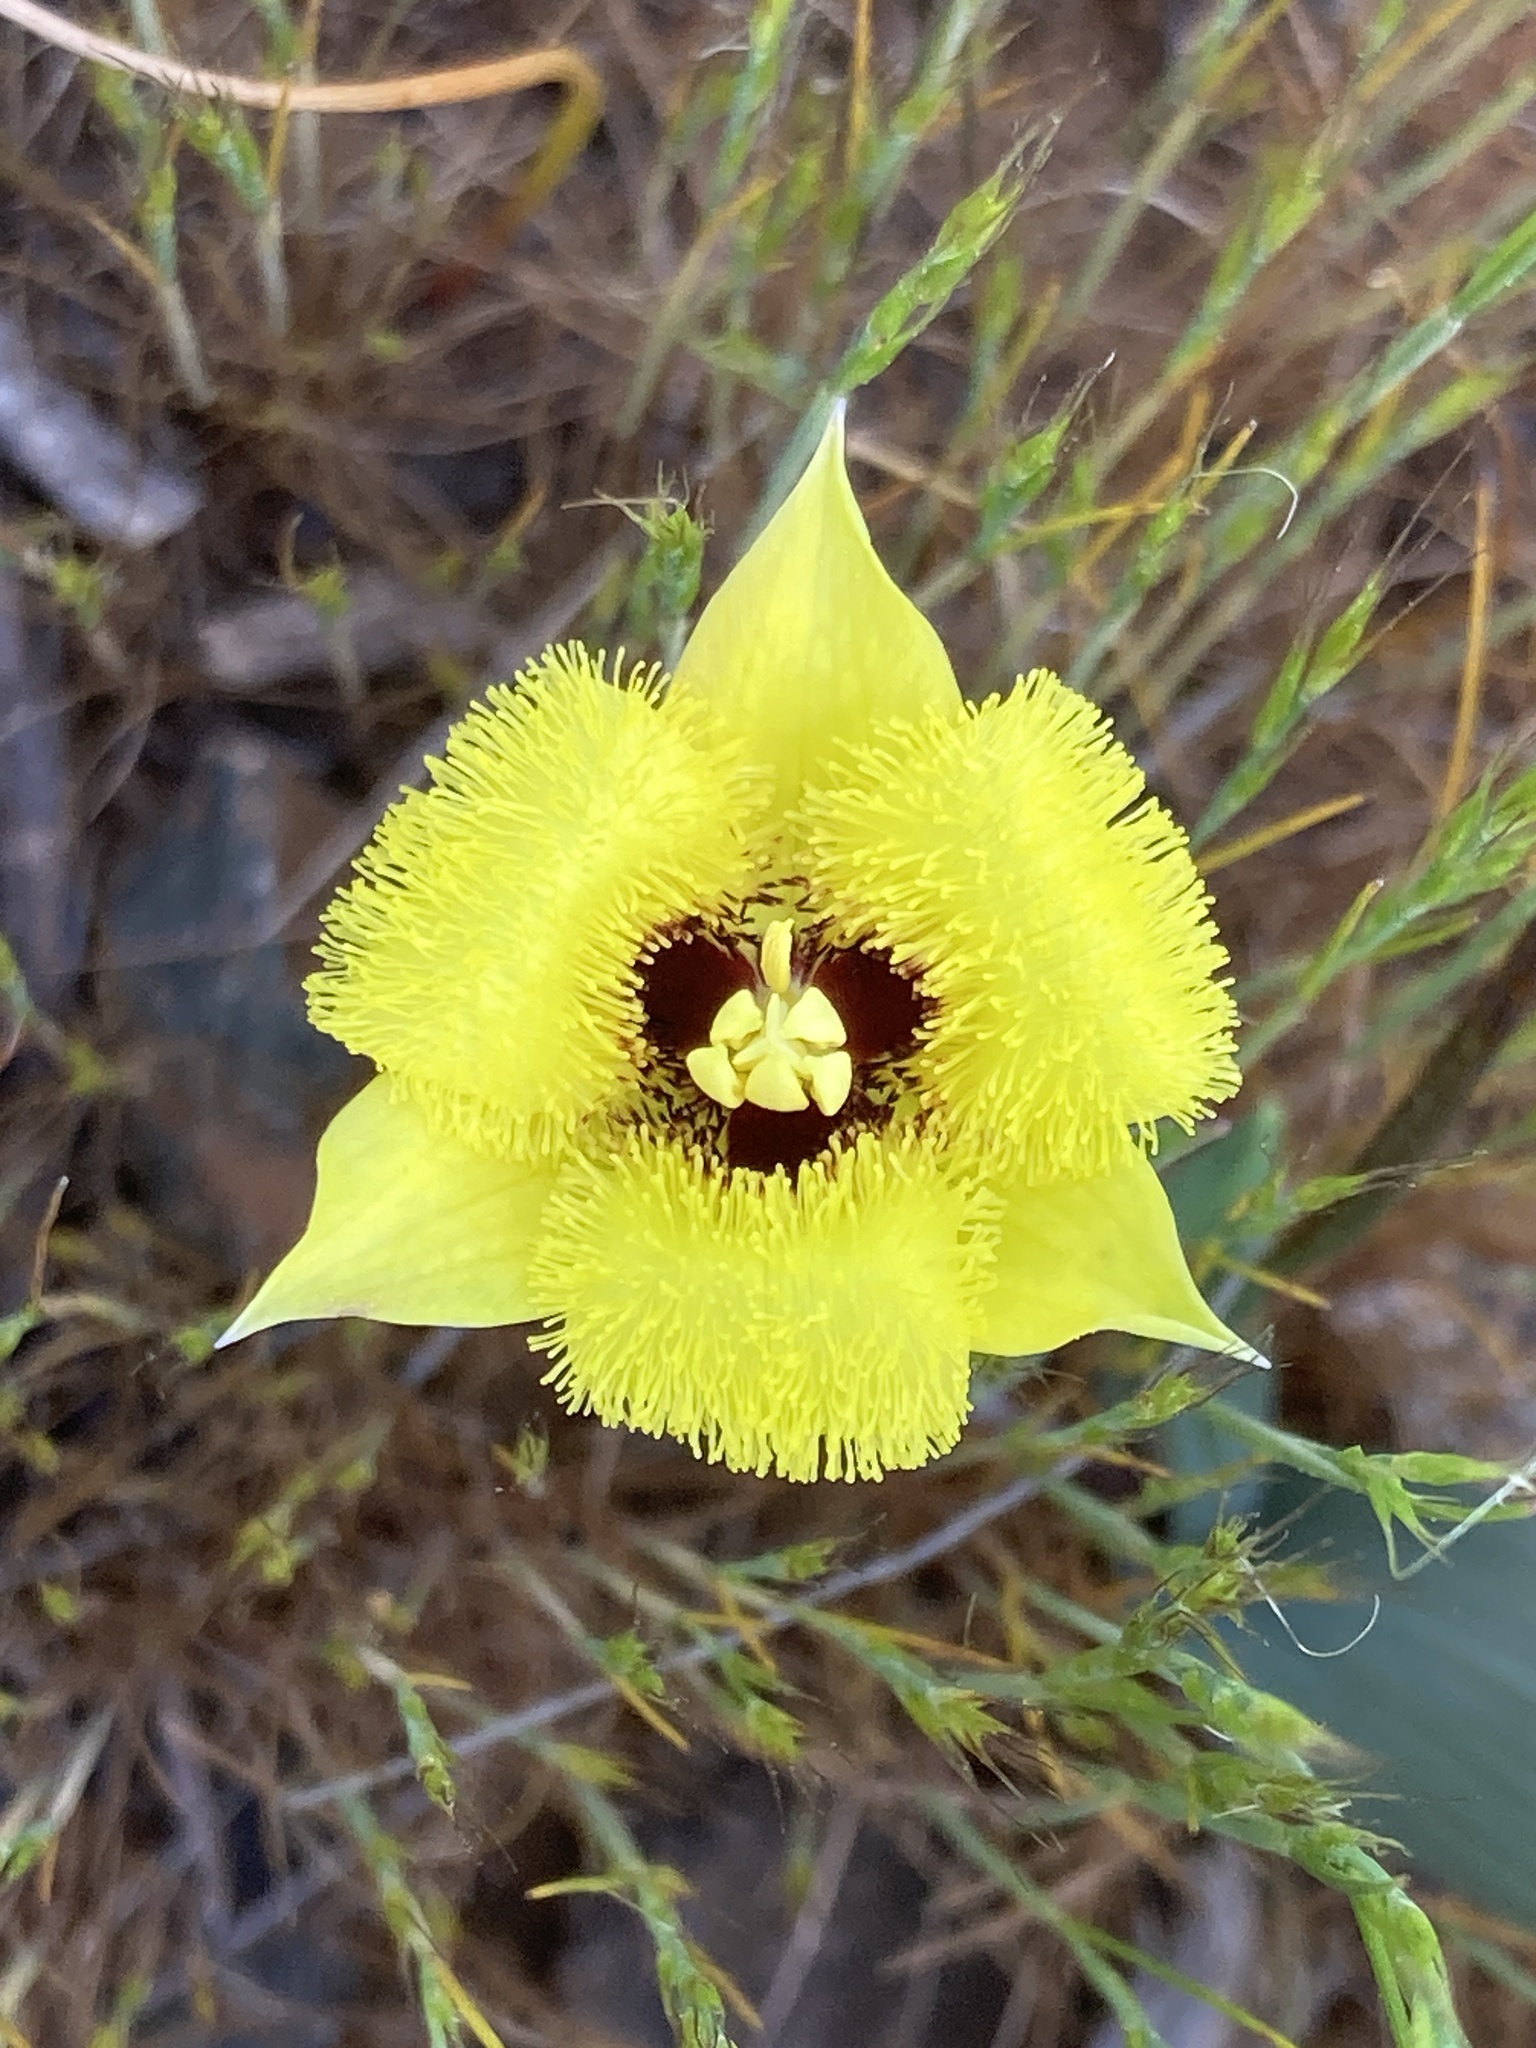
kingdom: Plantae
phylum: Tracheophyta
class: Liliopsida
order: Liliales
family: Liliaceae
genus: Calochortus
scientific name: Calochortus monophyllus
